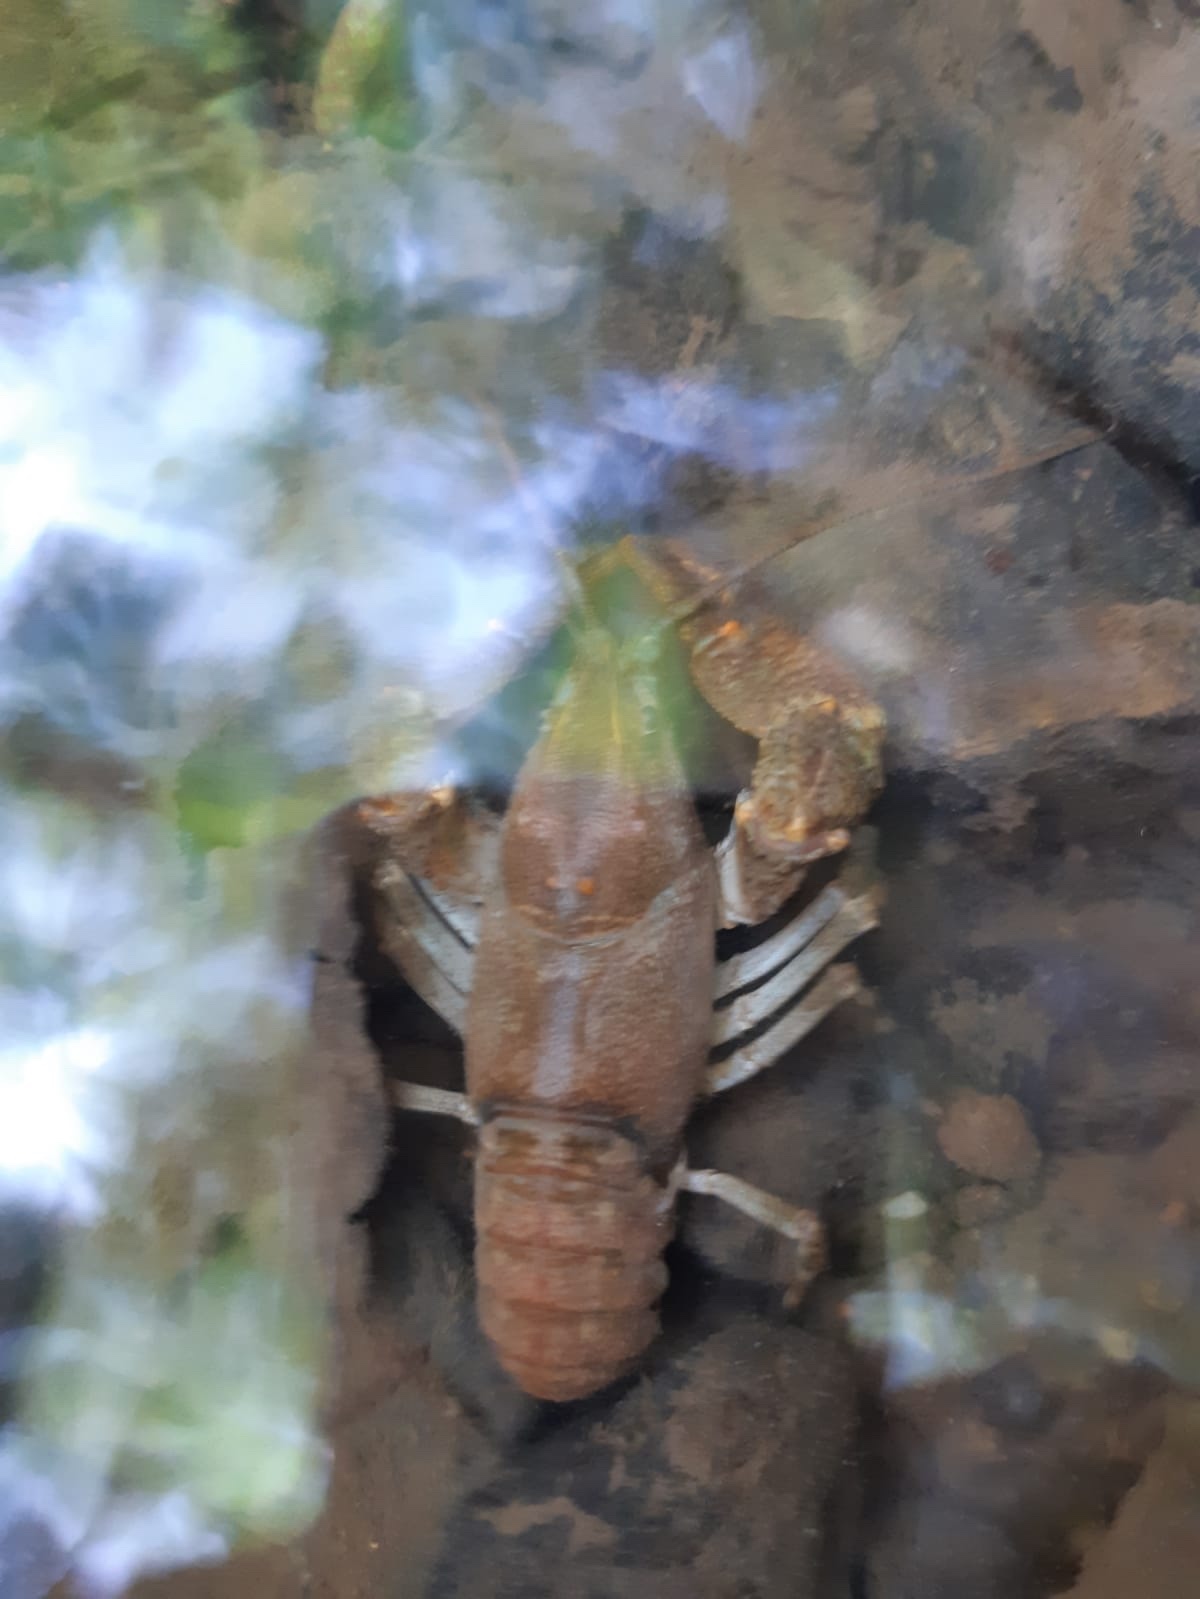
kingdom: Animalia
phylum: Arthropoda
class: Malacostraca
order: Decapoda
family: Astacidae
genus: Austropotamobius
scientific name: Austropotamobius torrentium
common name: Stone crayfish
